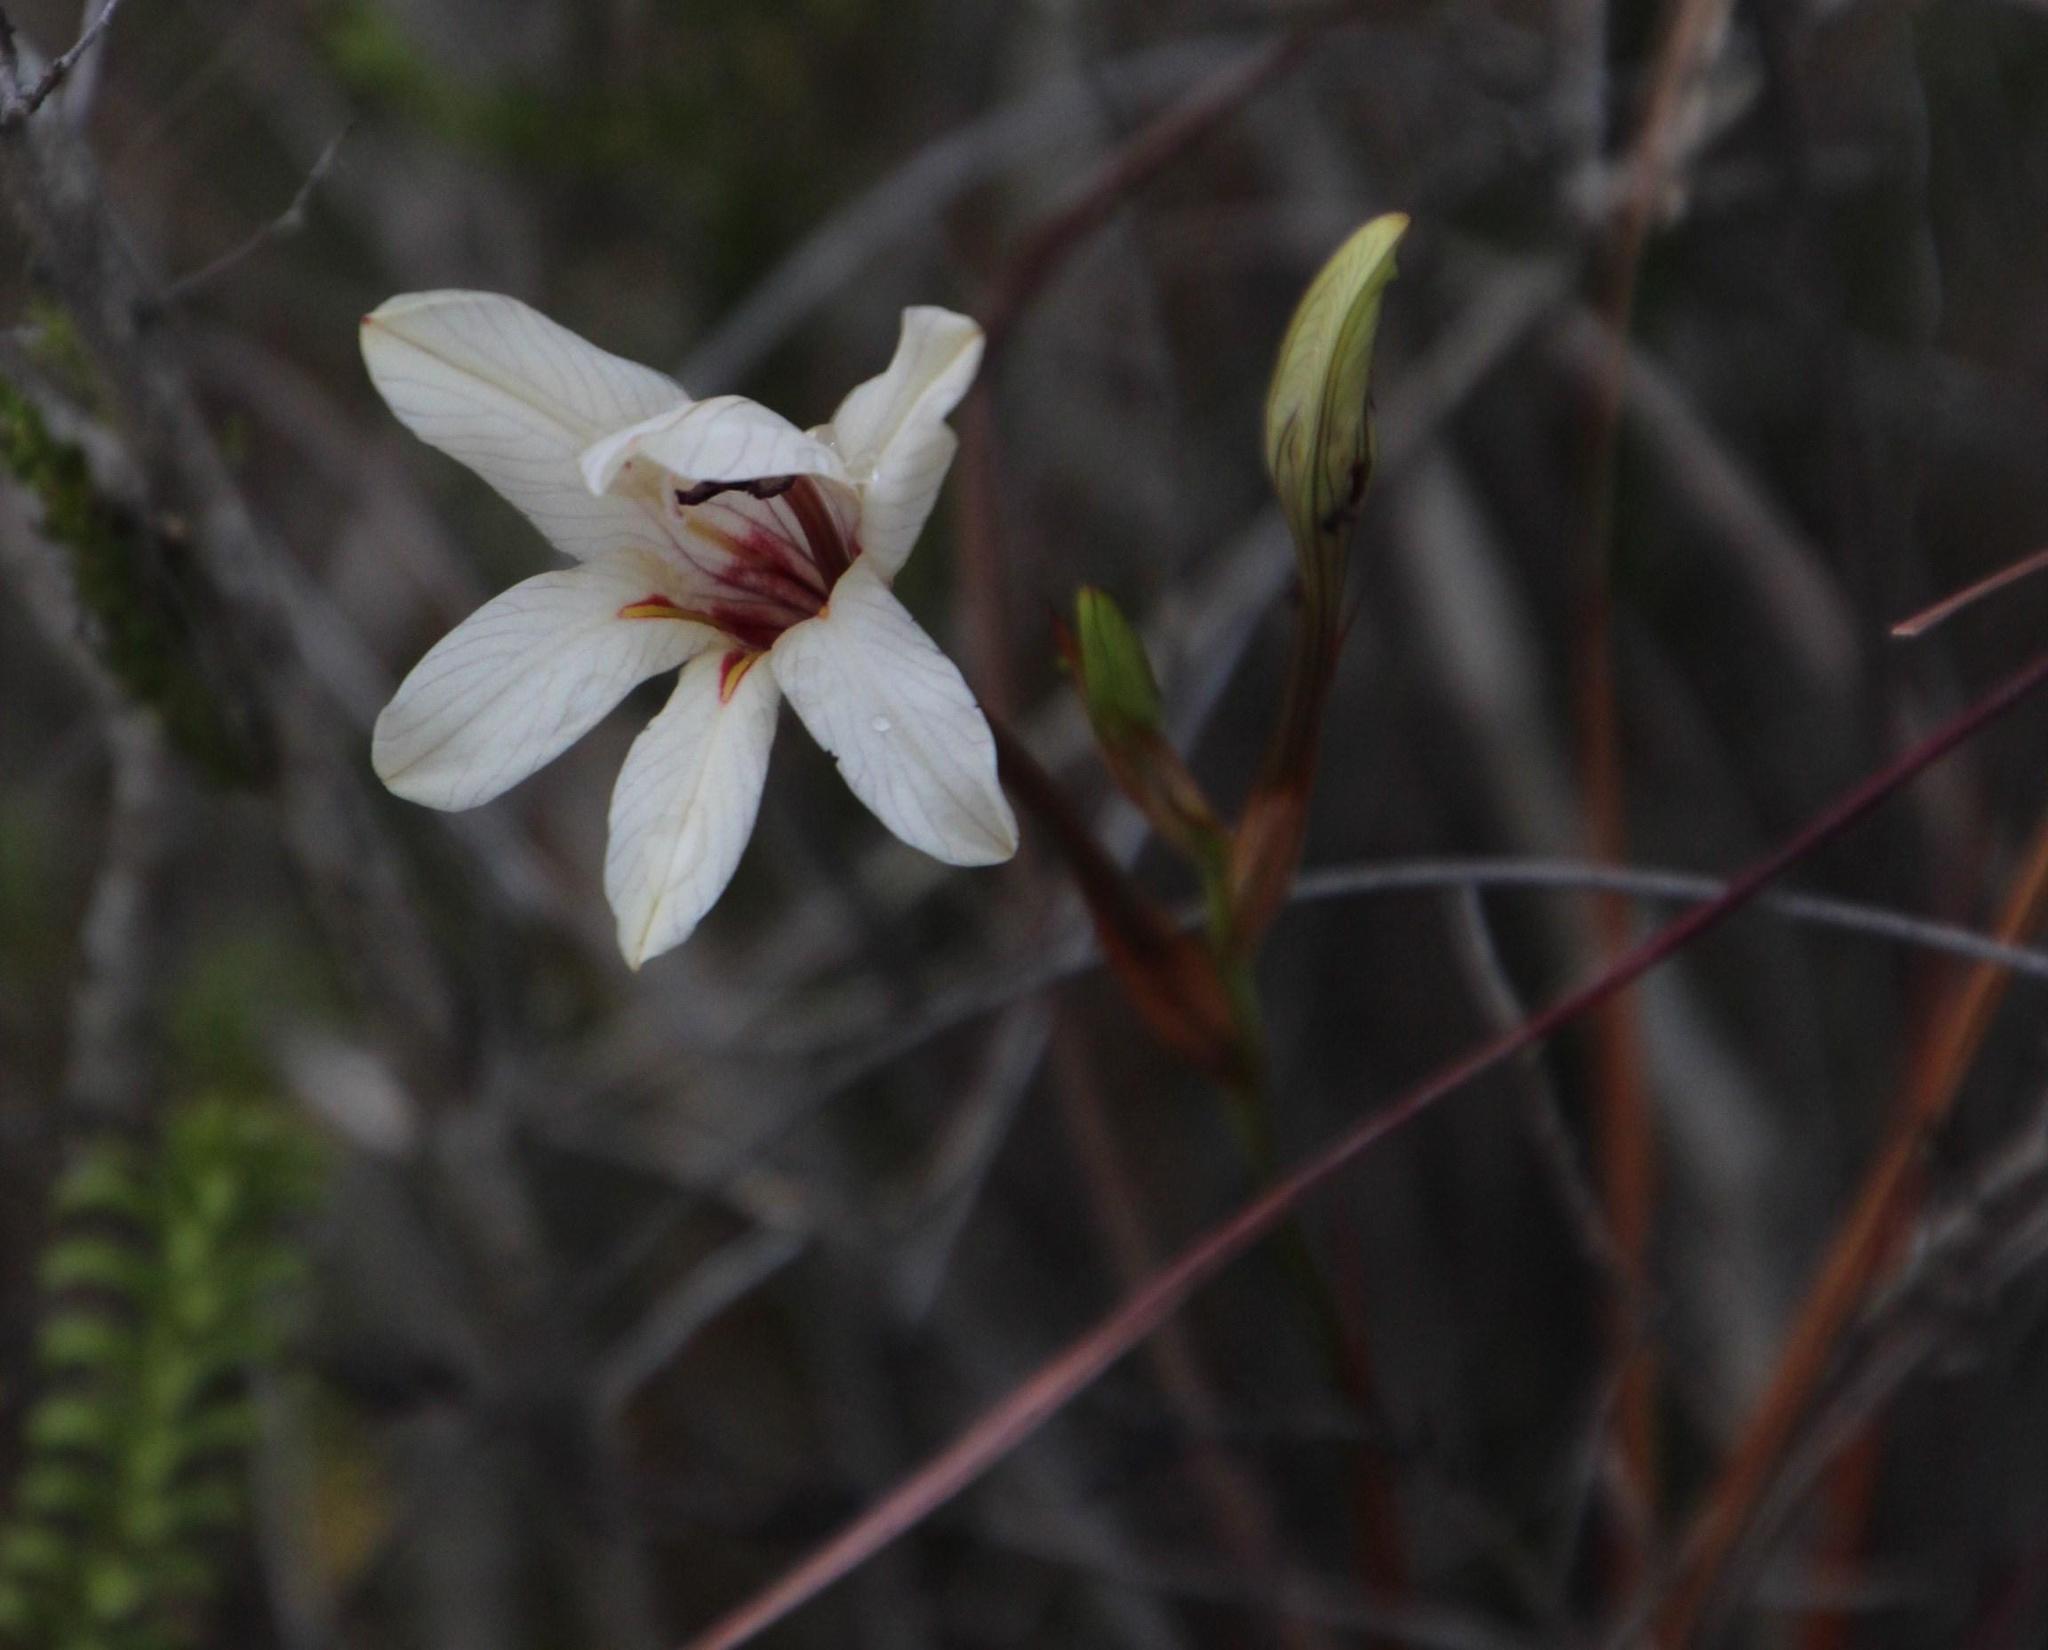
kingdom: Plantae
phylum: Tracheophyta
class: Liliopsida
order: Asparagales
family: Iridaceae
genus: Tritonia
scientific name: Tritonia flabellifolia
